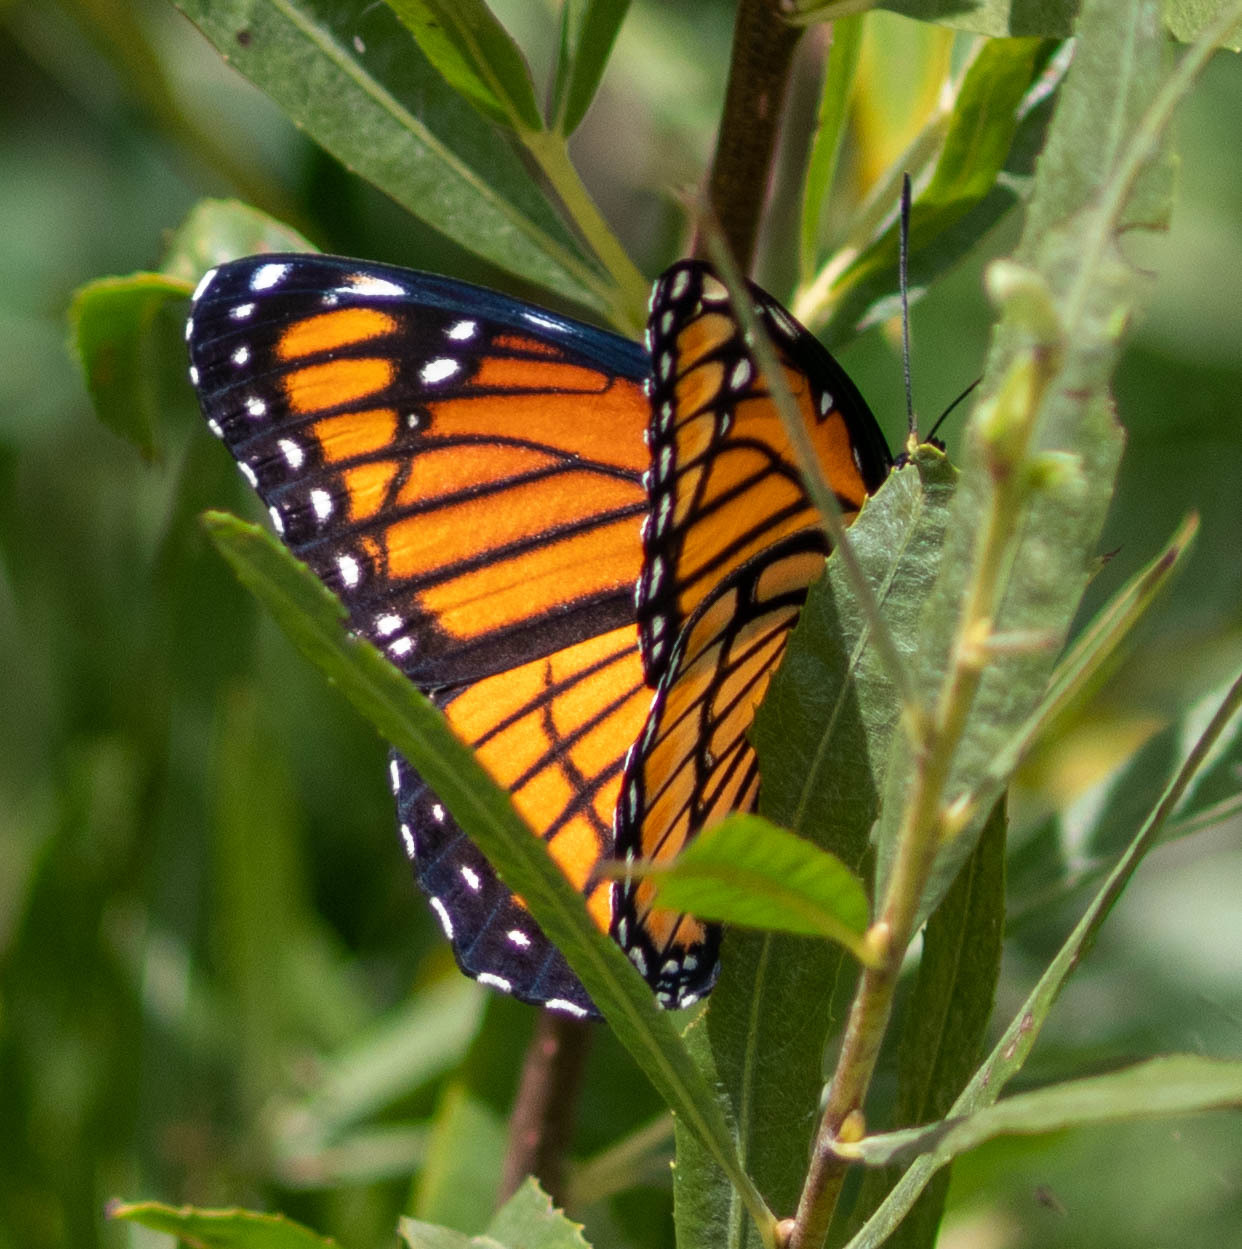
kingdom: Animalia
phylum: Arthropoda
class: Insecta
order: Lepidoptera
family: Nymphalidae
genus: Limenitis
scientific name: Limenitis archippus
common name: Viceroy
